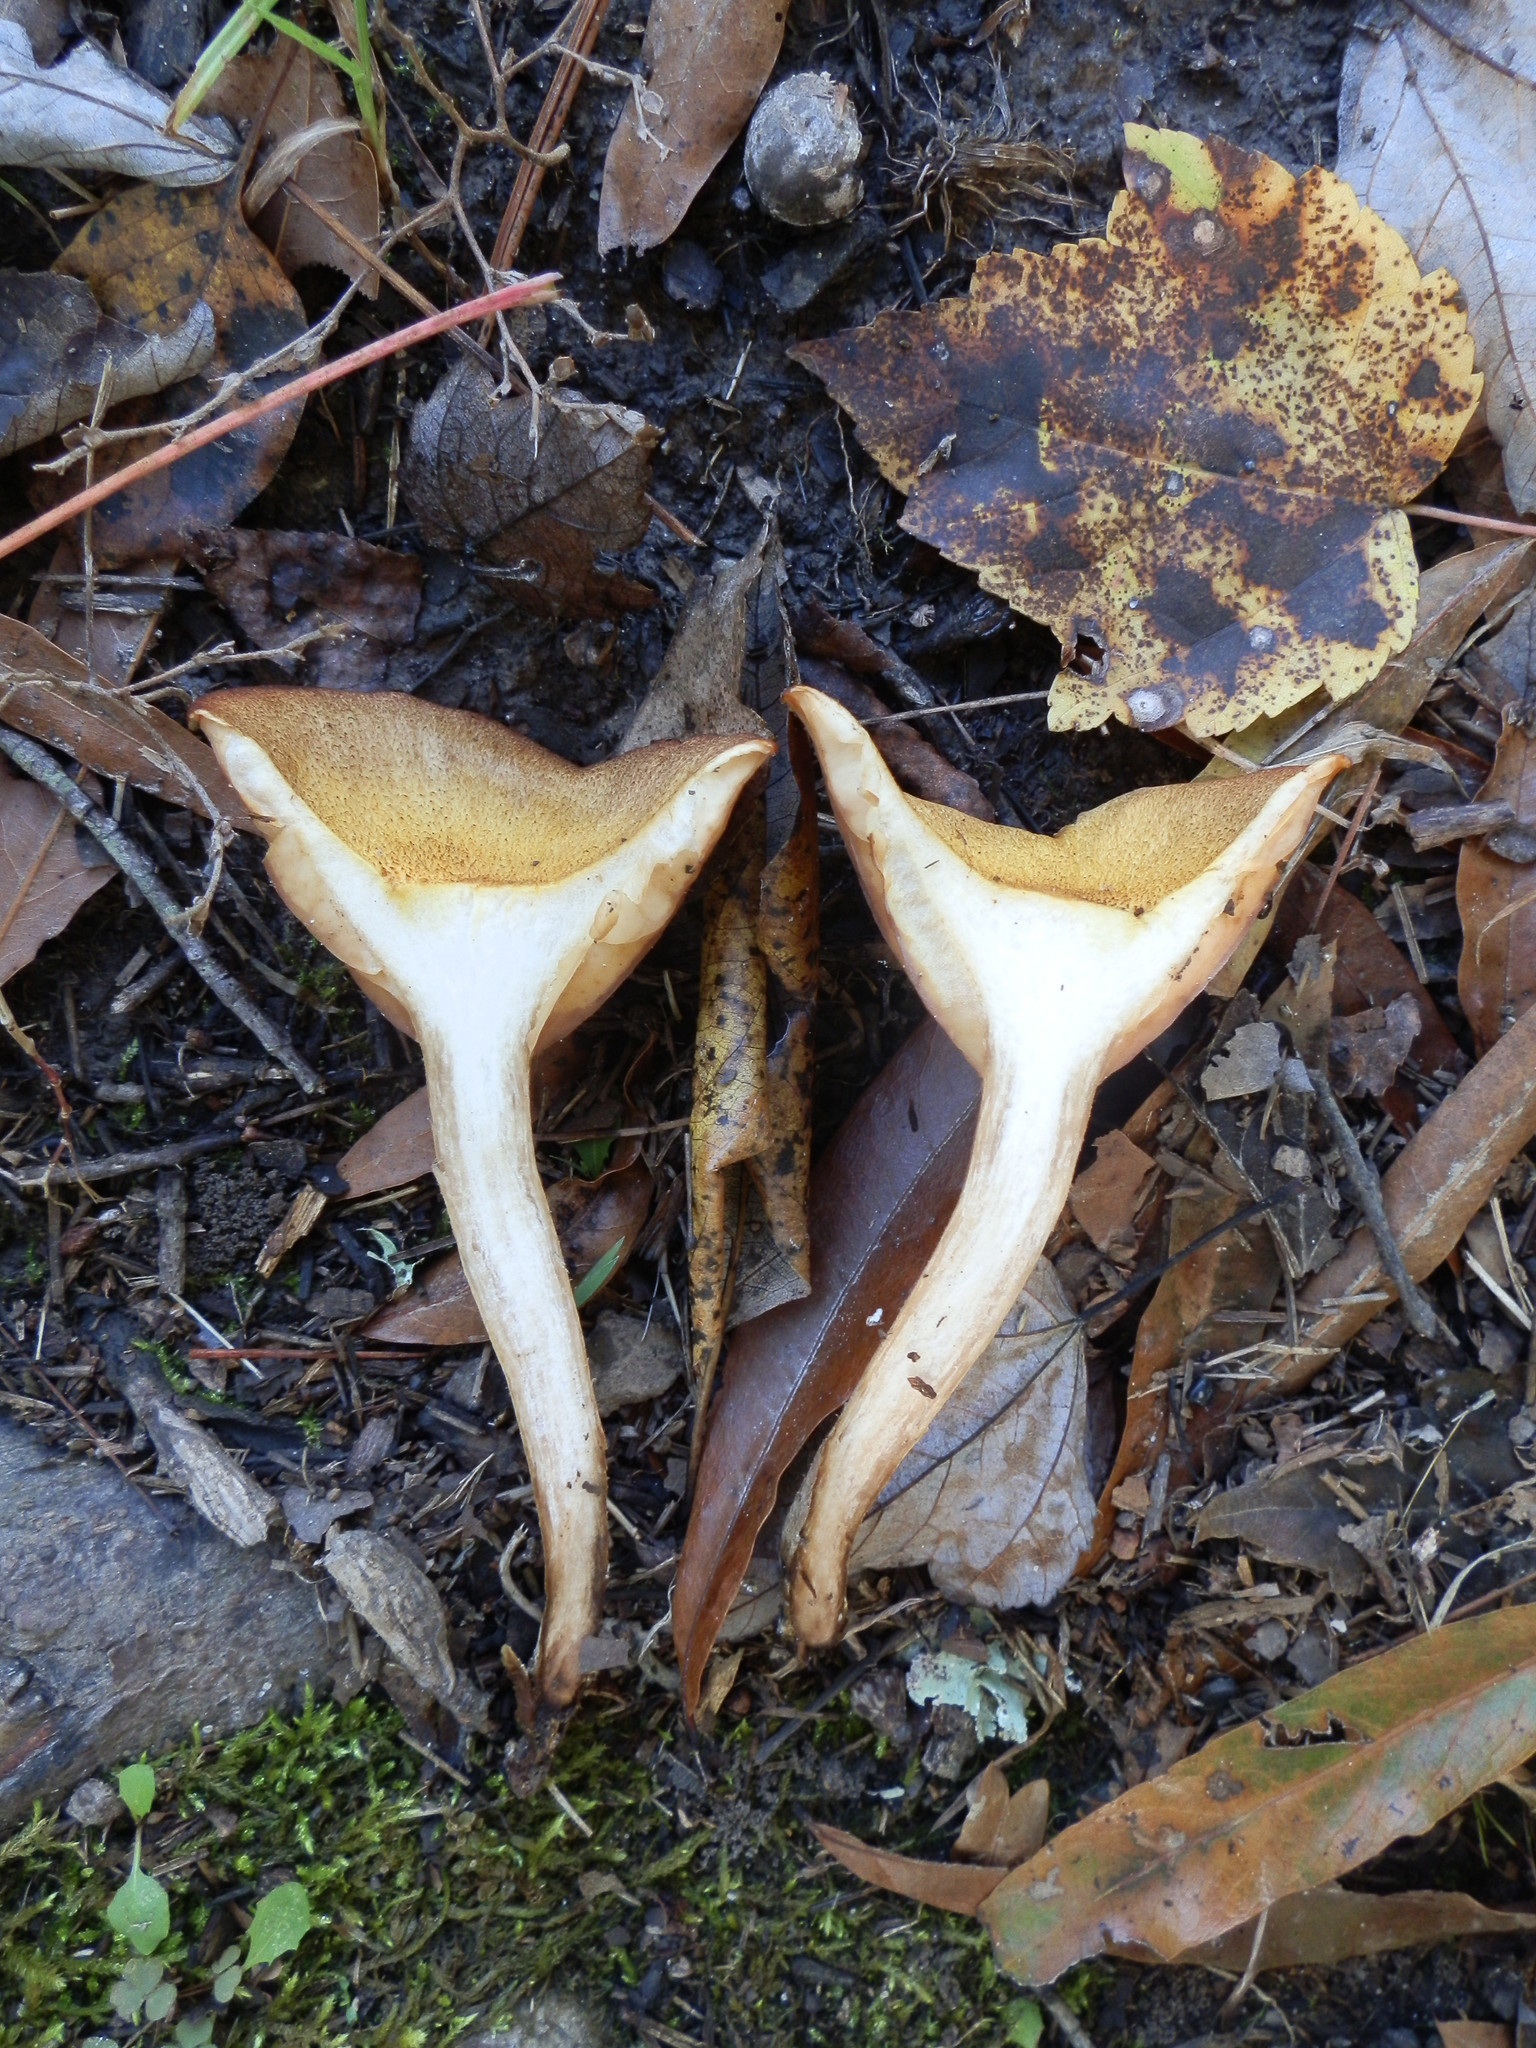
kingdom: Fungi
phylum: Basidiomycota
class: Agaricomycetes
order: Agaricales
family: Physalacriaceae
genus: Desarmillaria
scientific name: Desarmillaria caespitosa
